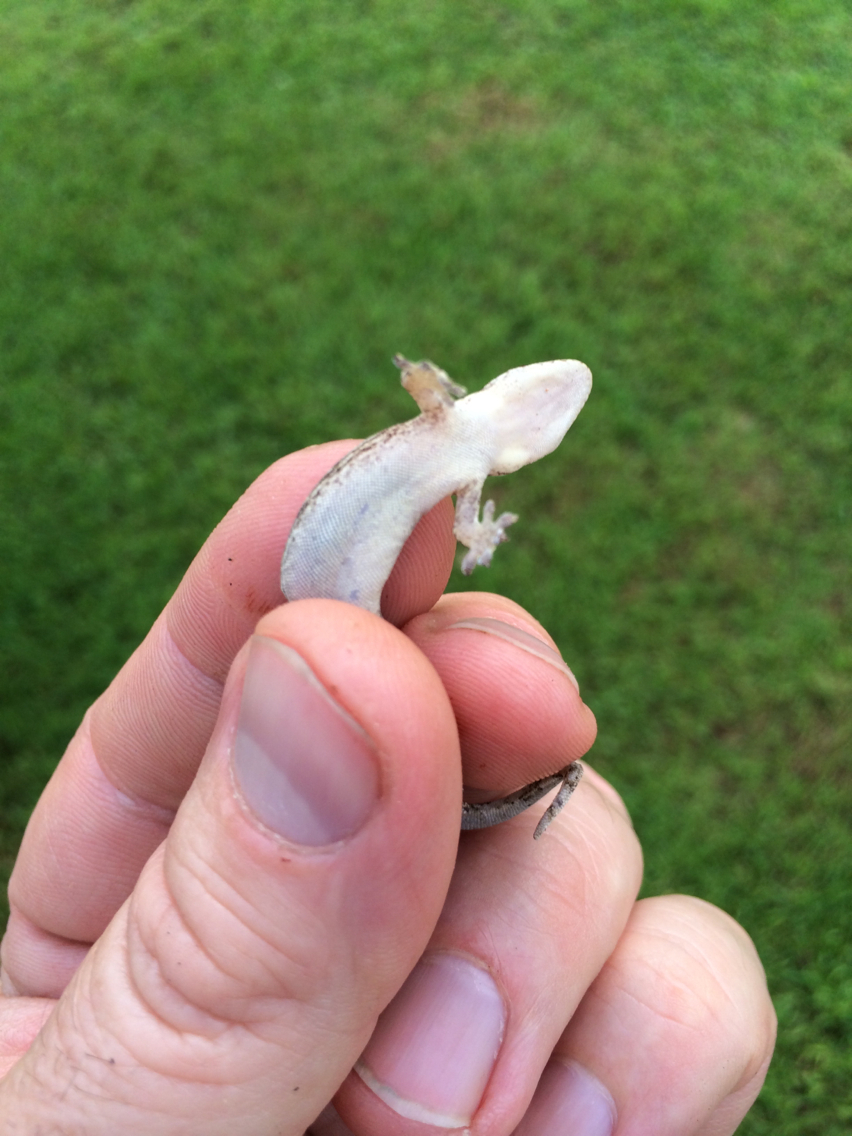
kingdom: Animalia
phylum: Chordata
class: Squamata
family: Gekkonidae
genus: Lepidodactylus
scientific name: Lepidodactylus lugubris
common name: Mourning gecko
